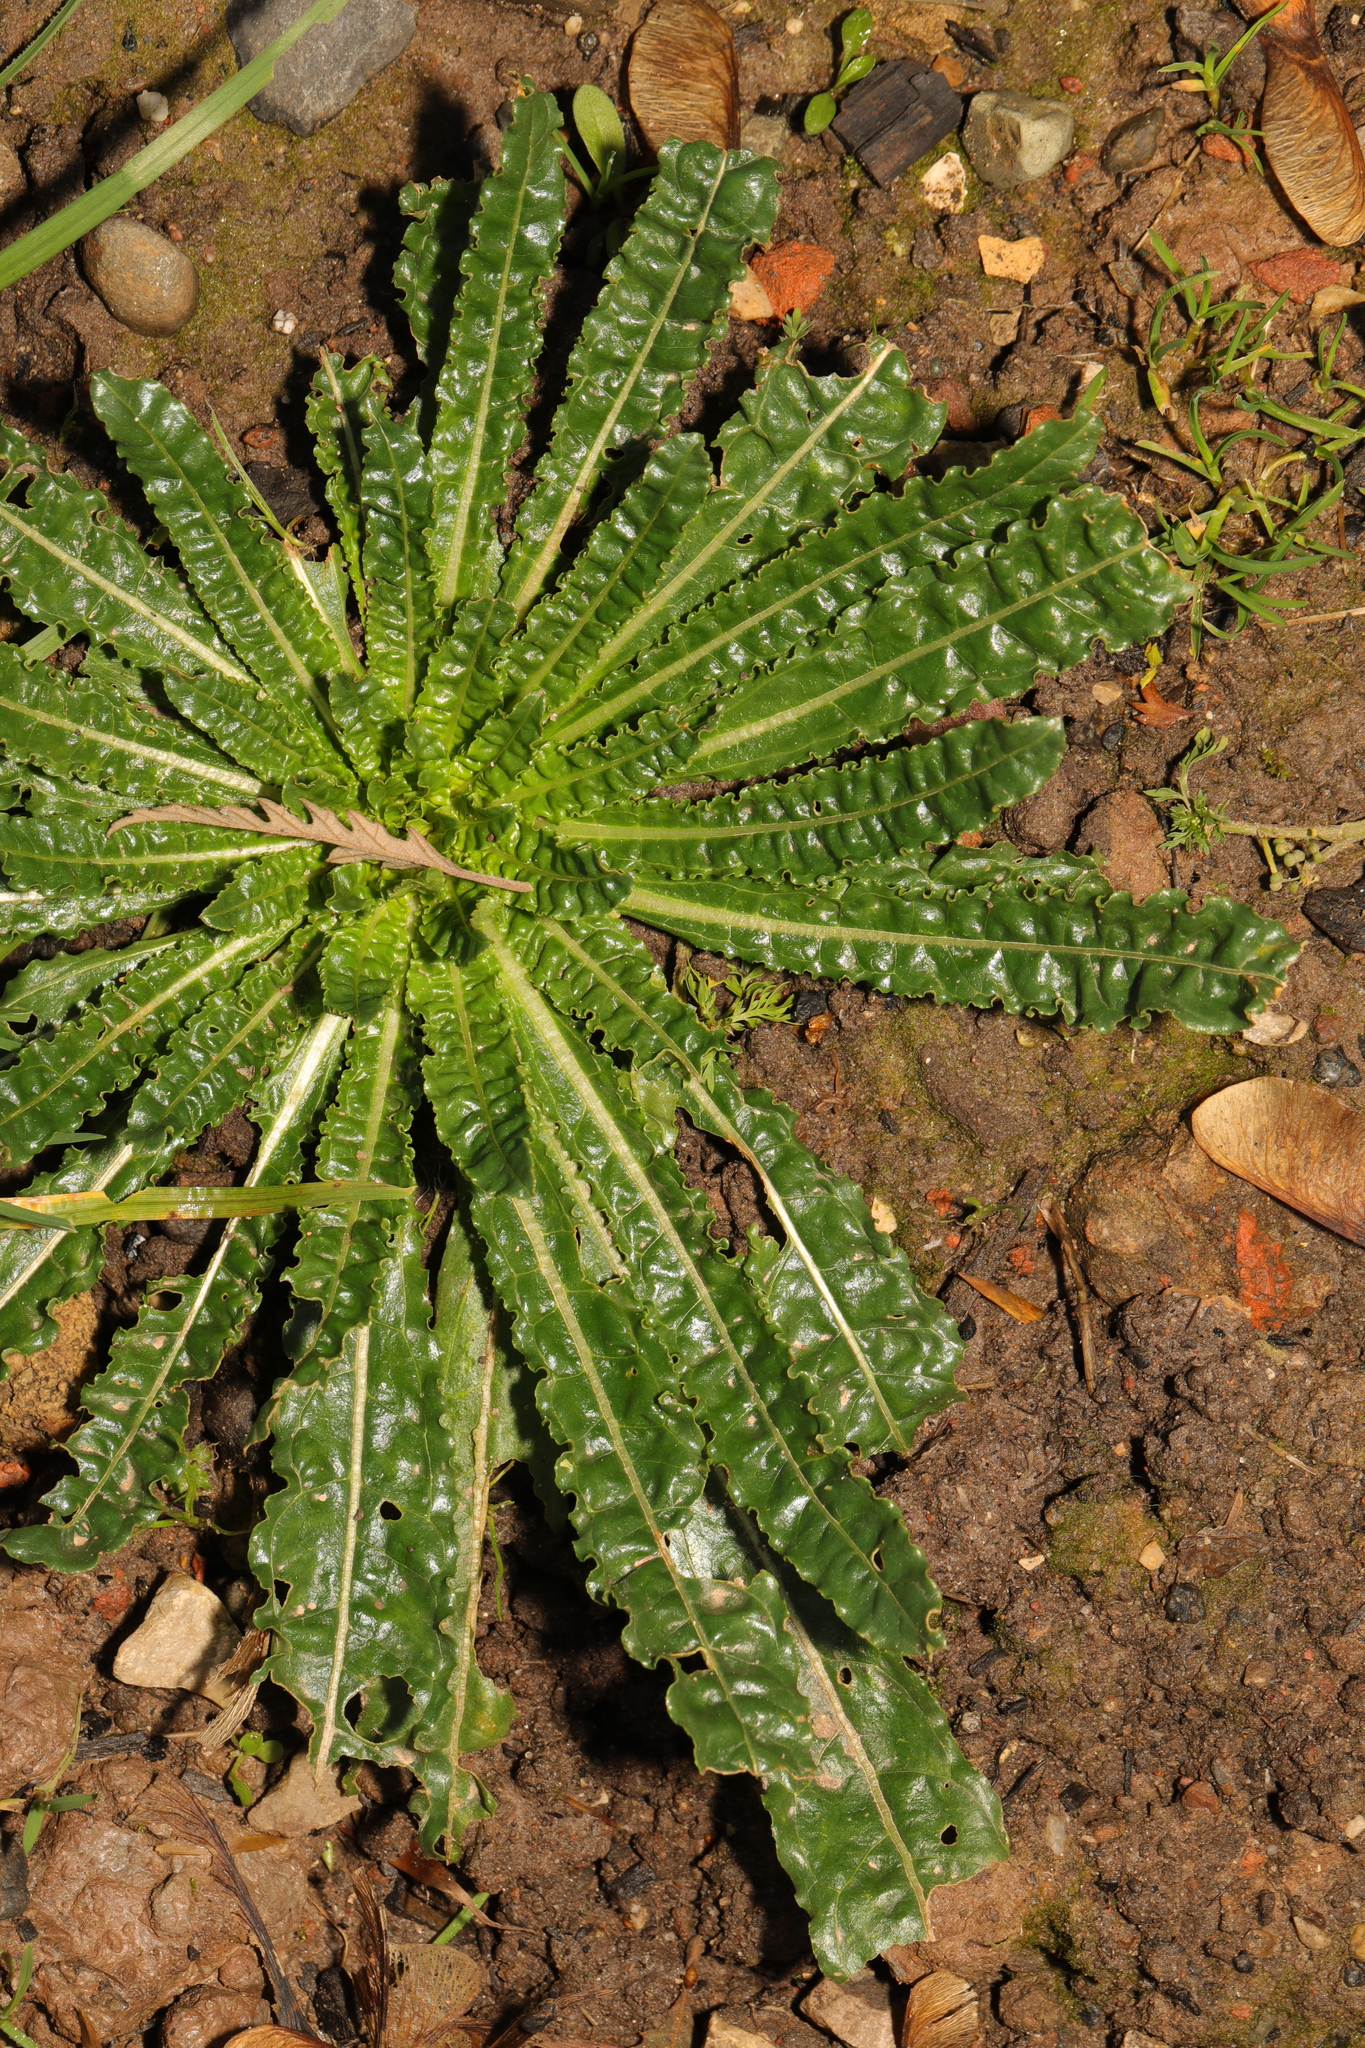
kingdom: Plantae
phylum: Tracheophyta
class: Magnoliopsida
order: Brassicales
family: Resedaceae
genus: Reseda
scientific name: Reseda luteola
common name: Weld
